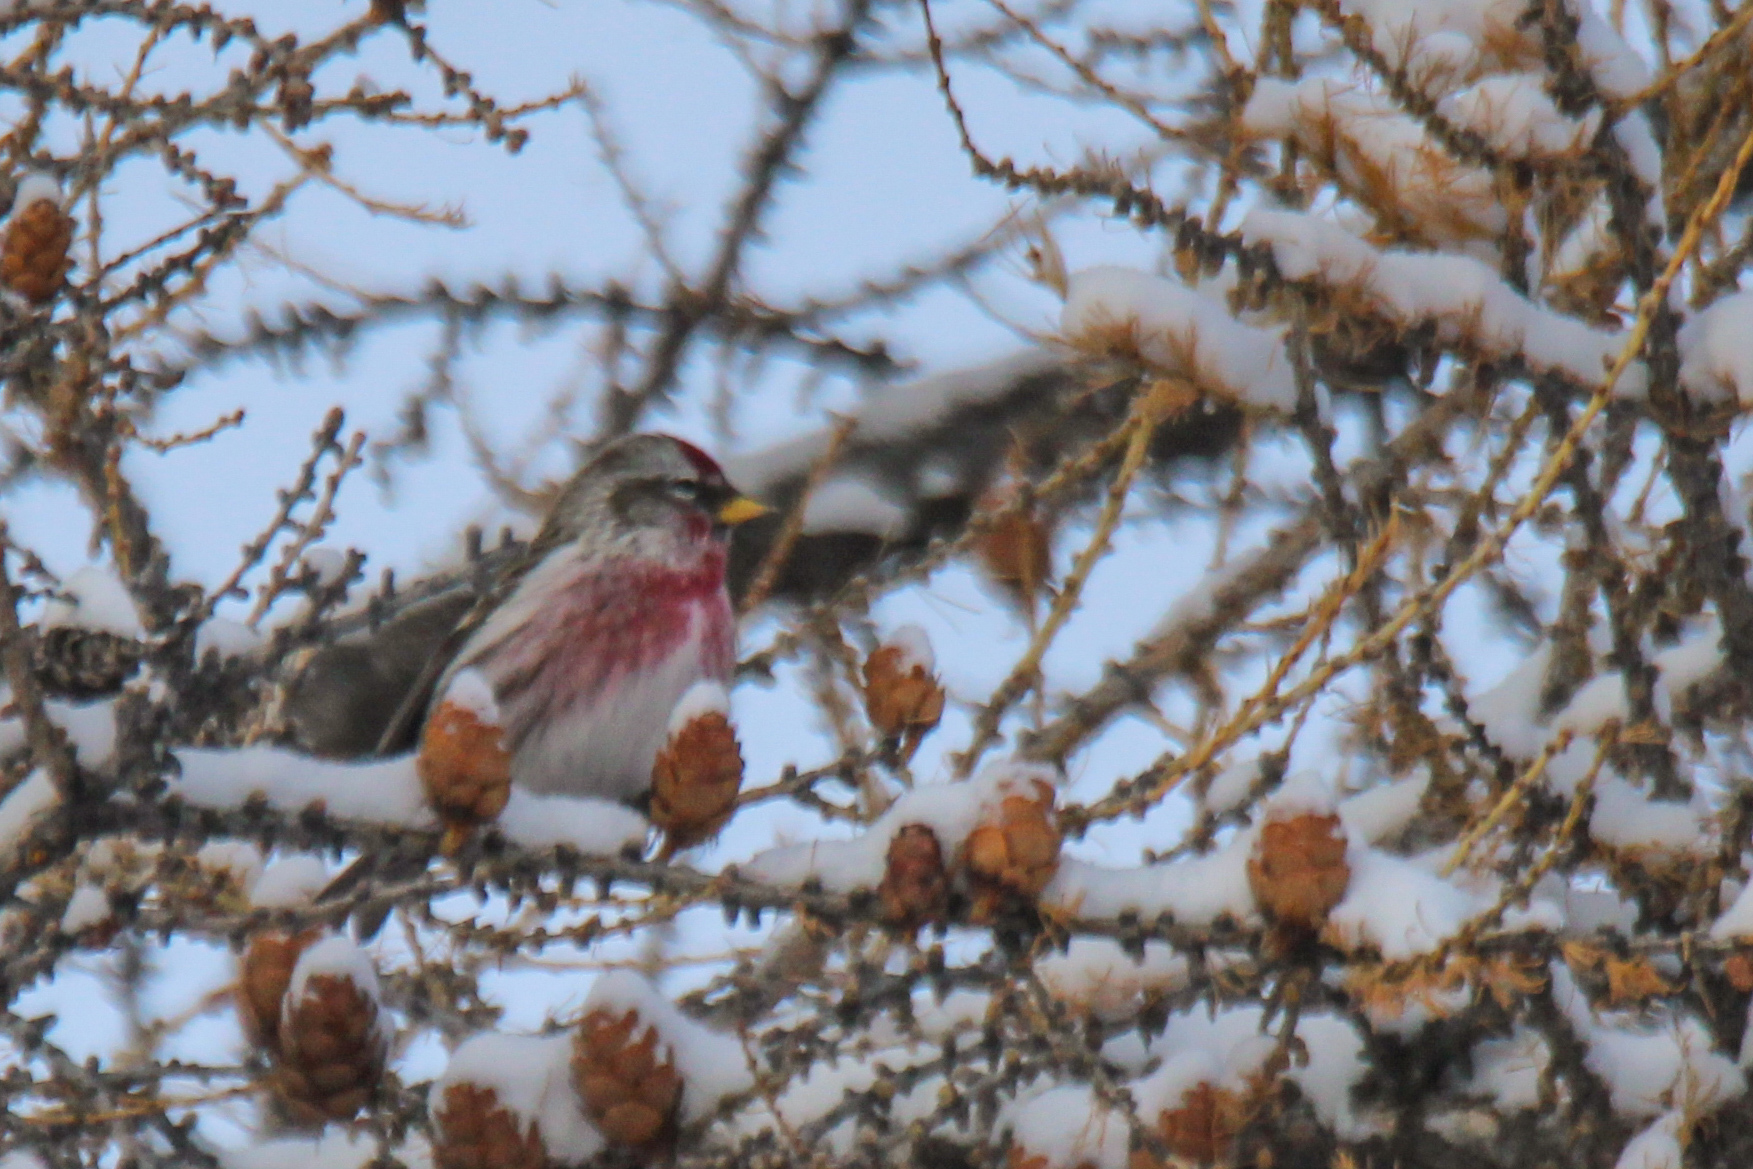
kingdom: Animalia
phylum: Chordata
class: Aves
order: Passeriformes
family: Fringillidae
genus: Acanthis
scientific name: Acanthis flammea
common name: Common redpoll
